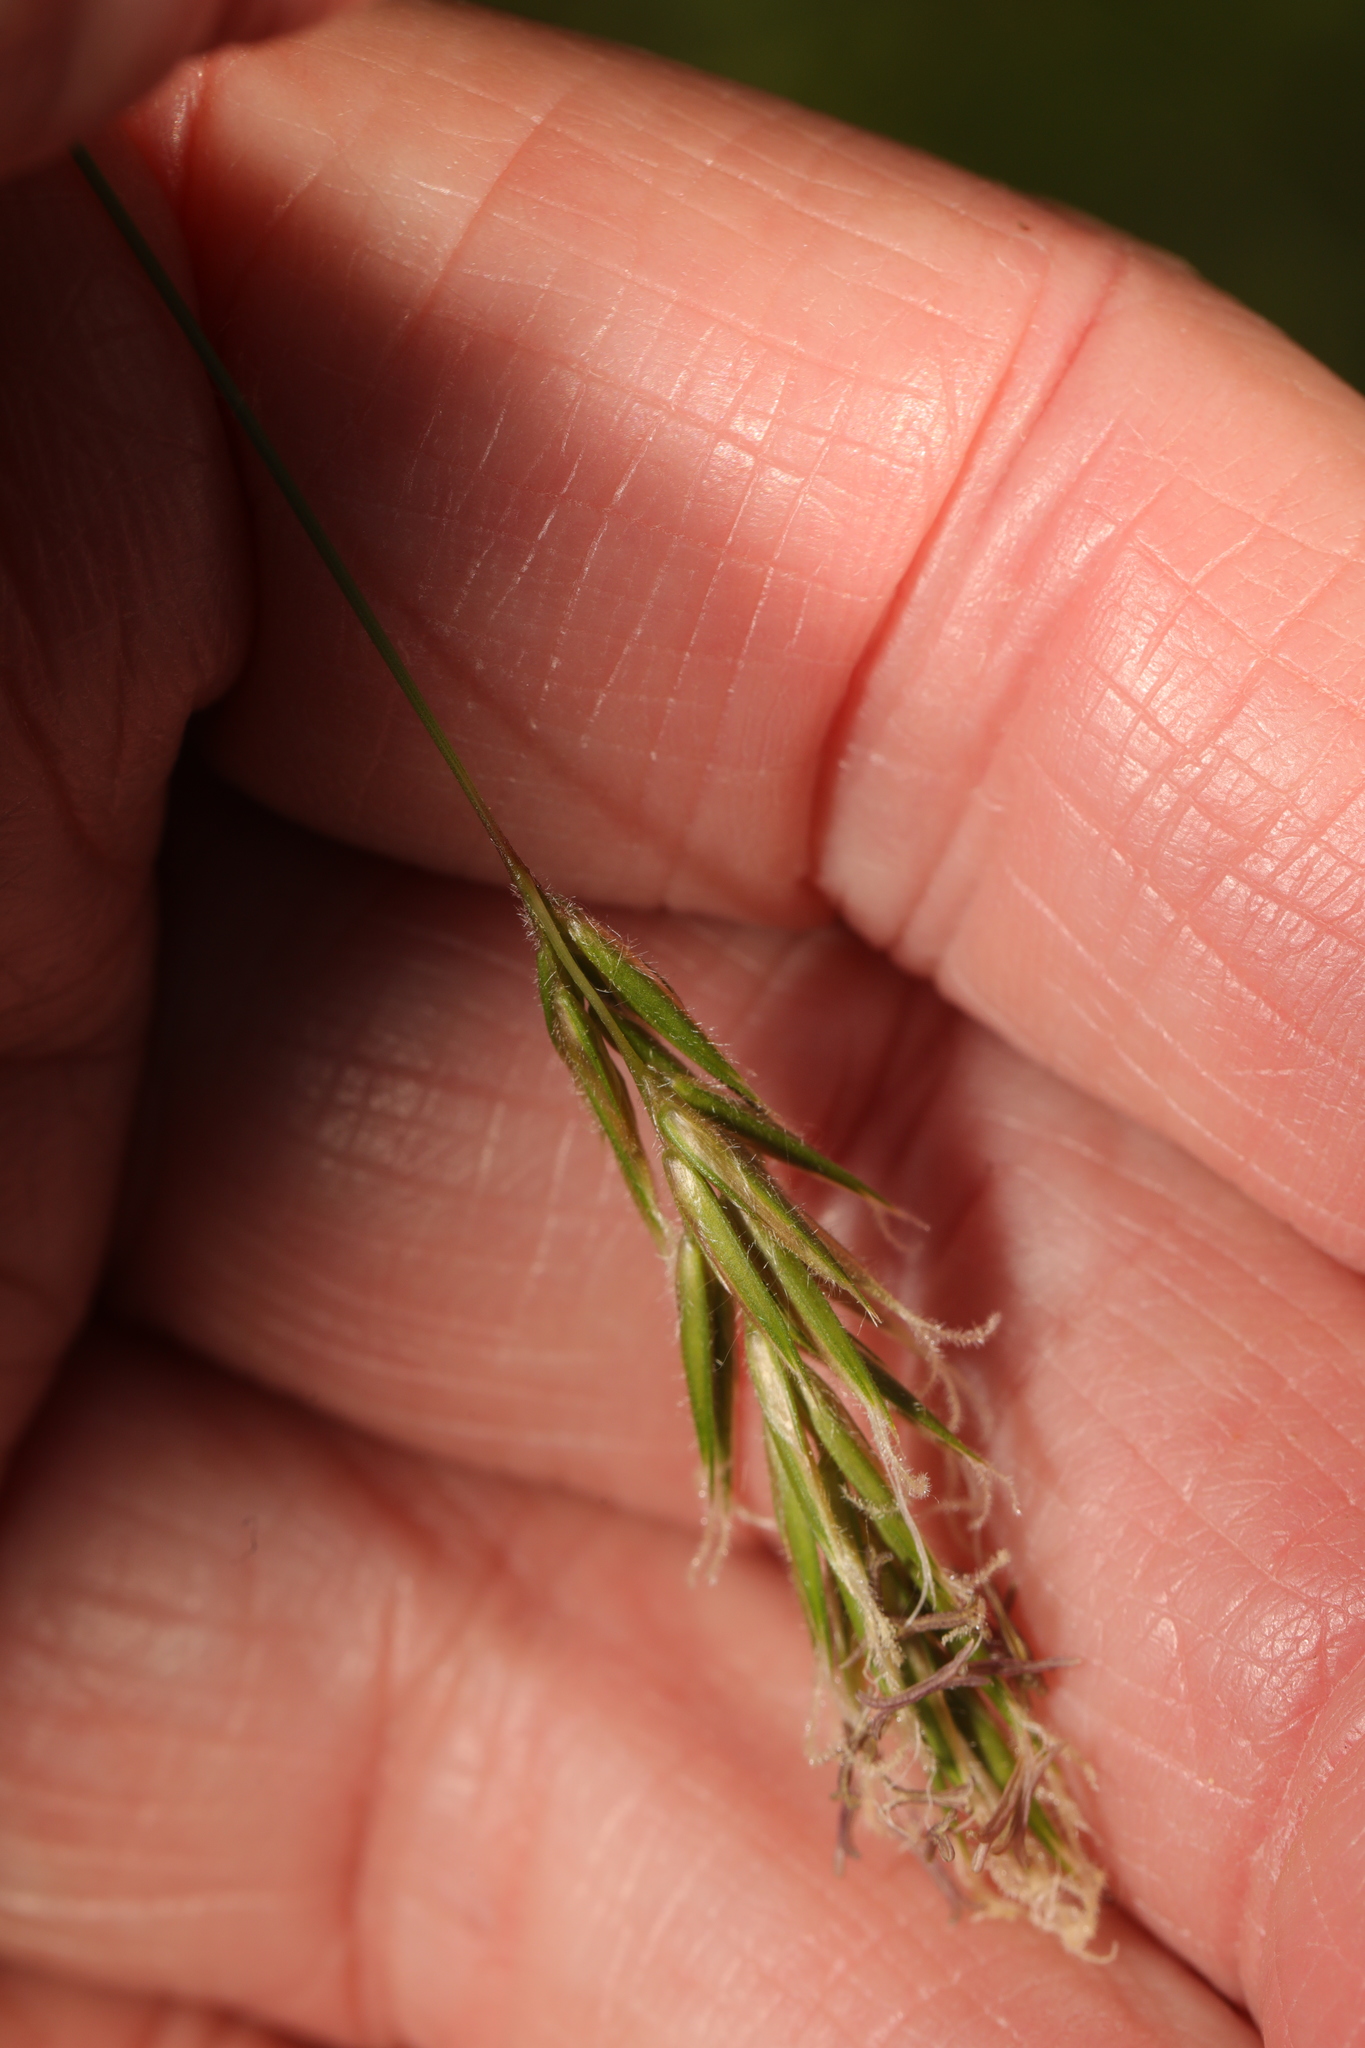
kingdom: Plantae
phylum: Tracheophyta
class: Liliopsida
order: Poales
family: Poaceae
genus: Anthoxanthum
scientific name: Anthoxanthum odoratum
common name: Sweet vernalgrass
